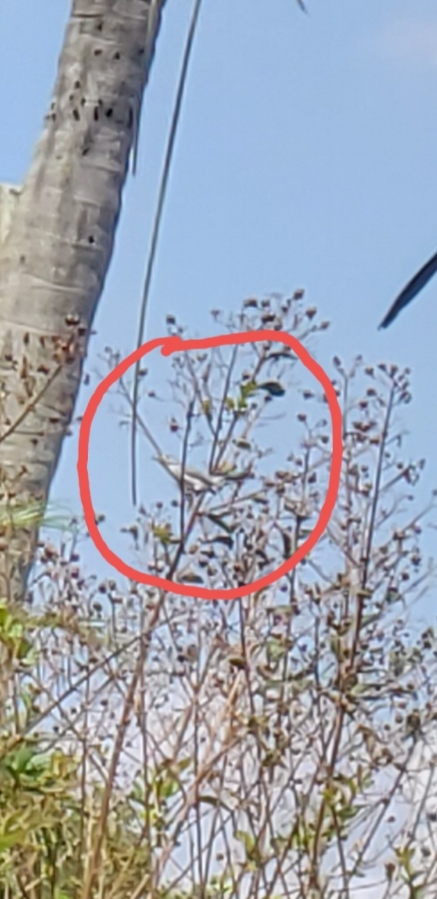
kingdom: Animalia
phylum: Chordata
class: Aves
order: Passeriformes
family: Polioptilidae
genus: Polioptila
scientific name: Polioptila caerulea
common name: Blue-gray gnatcatcher
